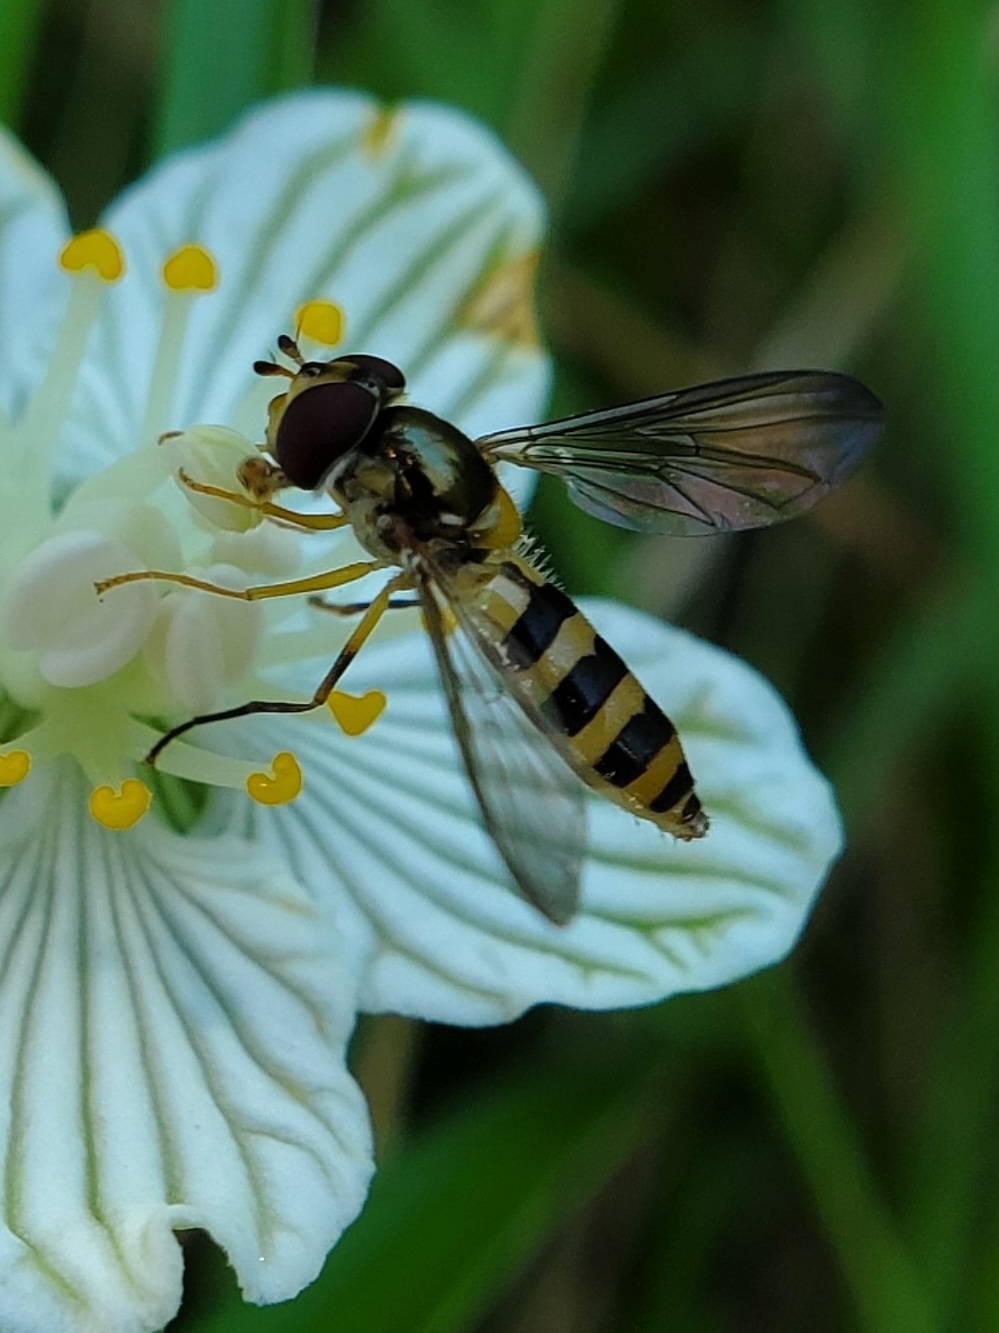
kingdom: Animalia
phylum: Arthropoda
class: Insecta
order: Diptera
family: Syrphidae
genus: Meliscaeva
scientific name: Meliscaeva cinctella
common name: American thintail fly
